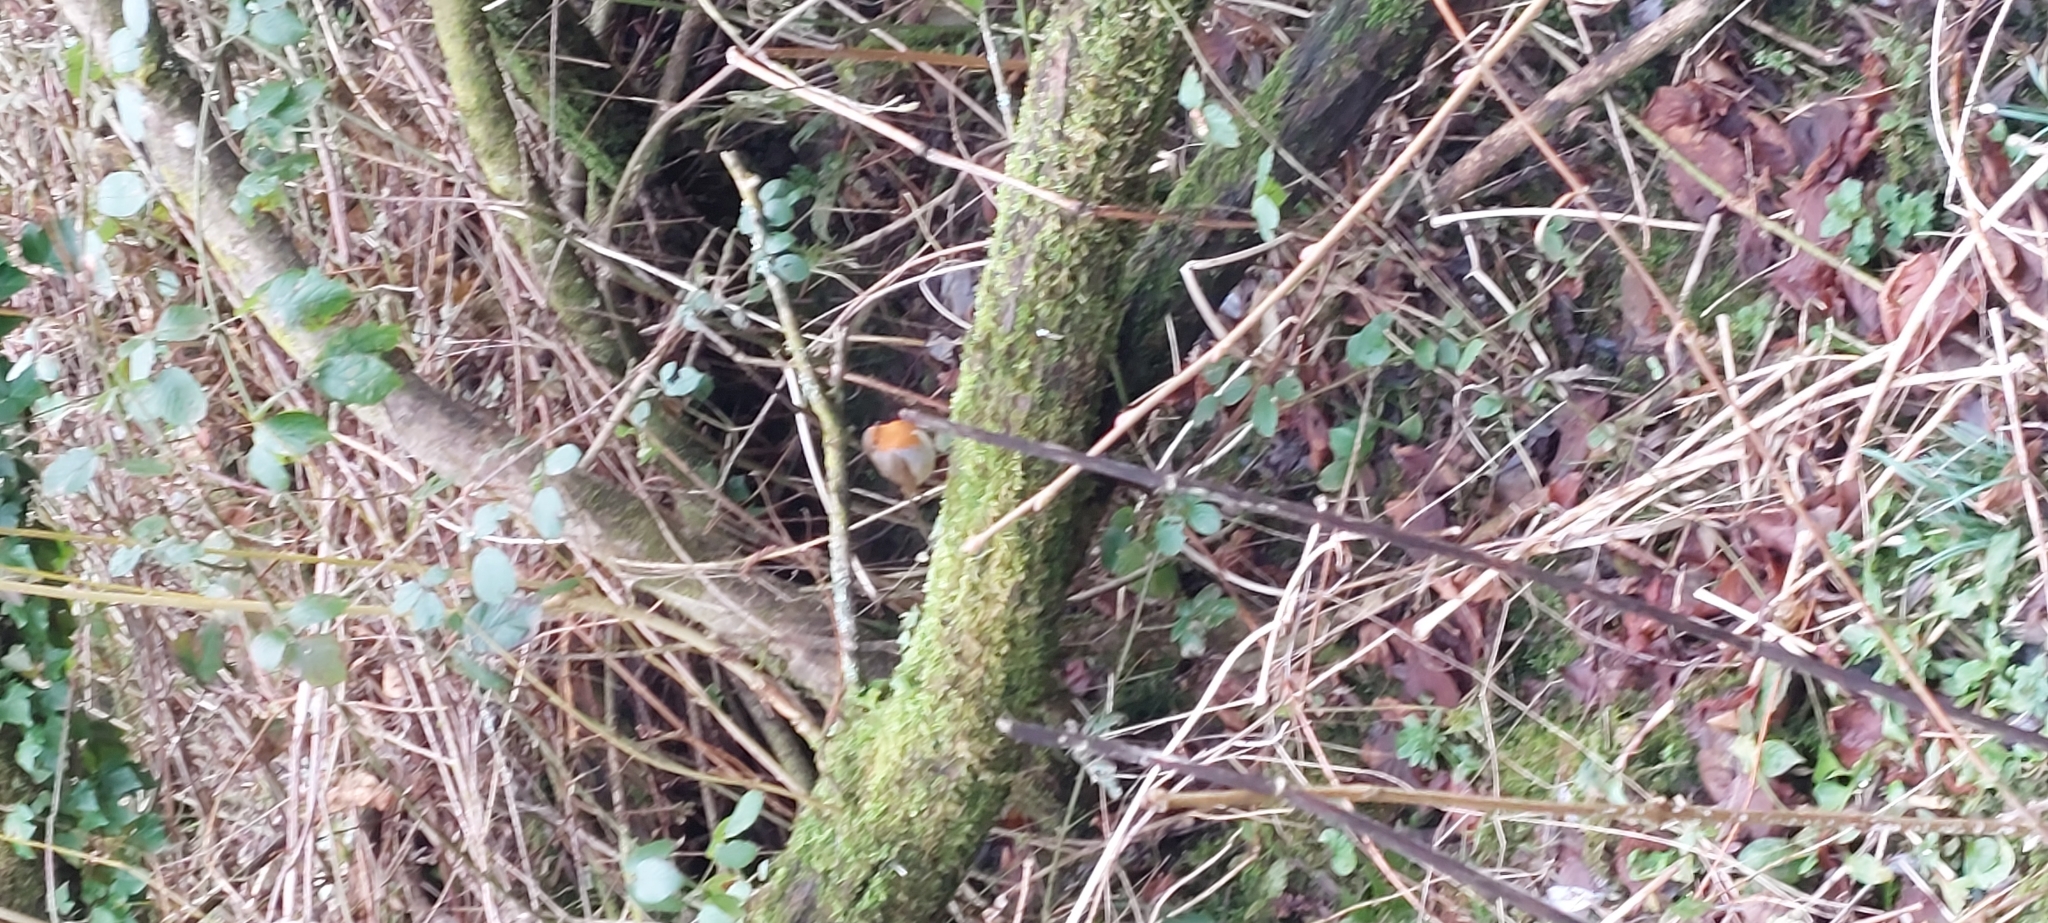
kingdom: Animalia
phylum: Chordata
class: Aves
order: Passeriformes
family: Muscicapidae
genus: Erithacus
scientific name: Erithacus rubecula
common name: European robin
